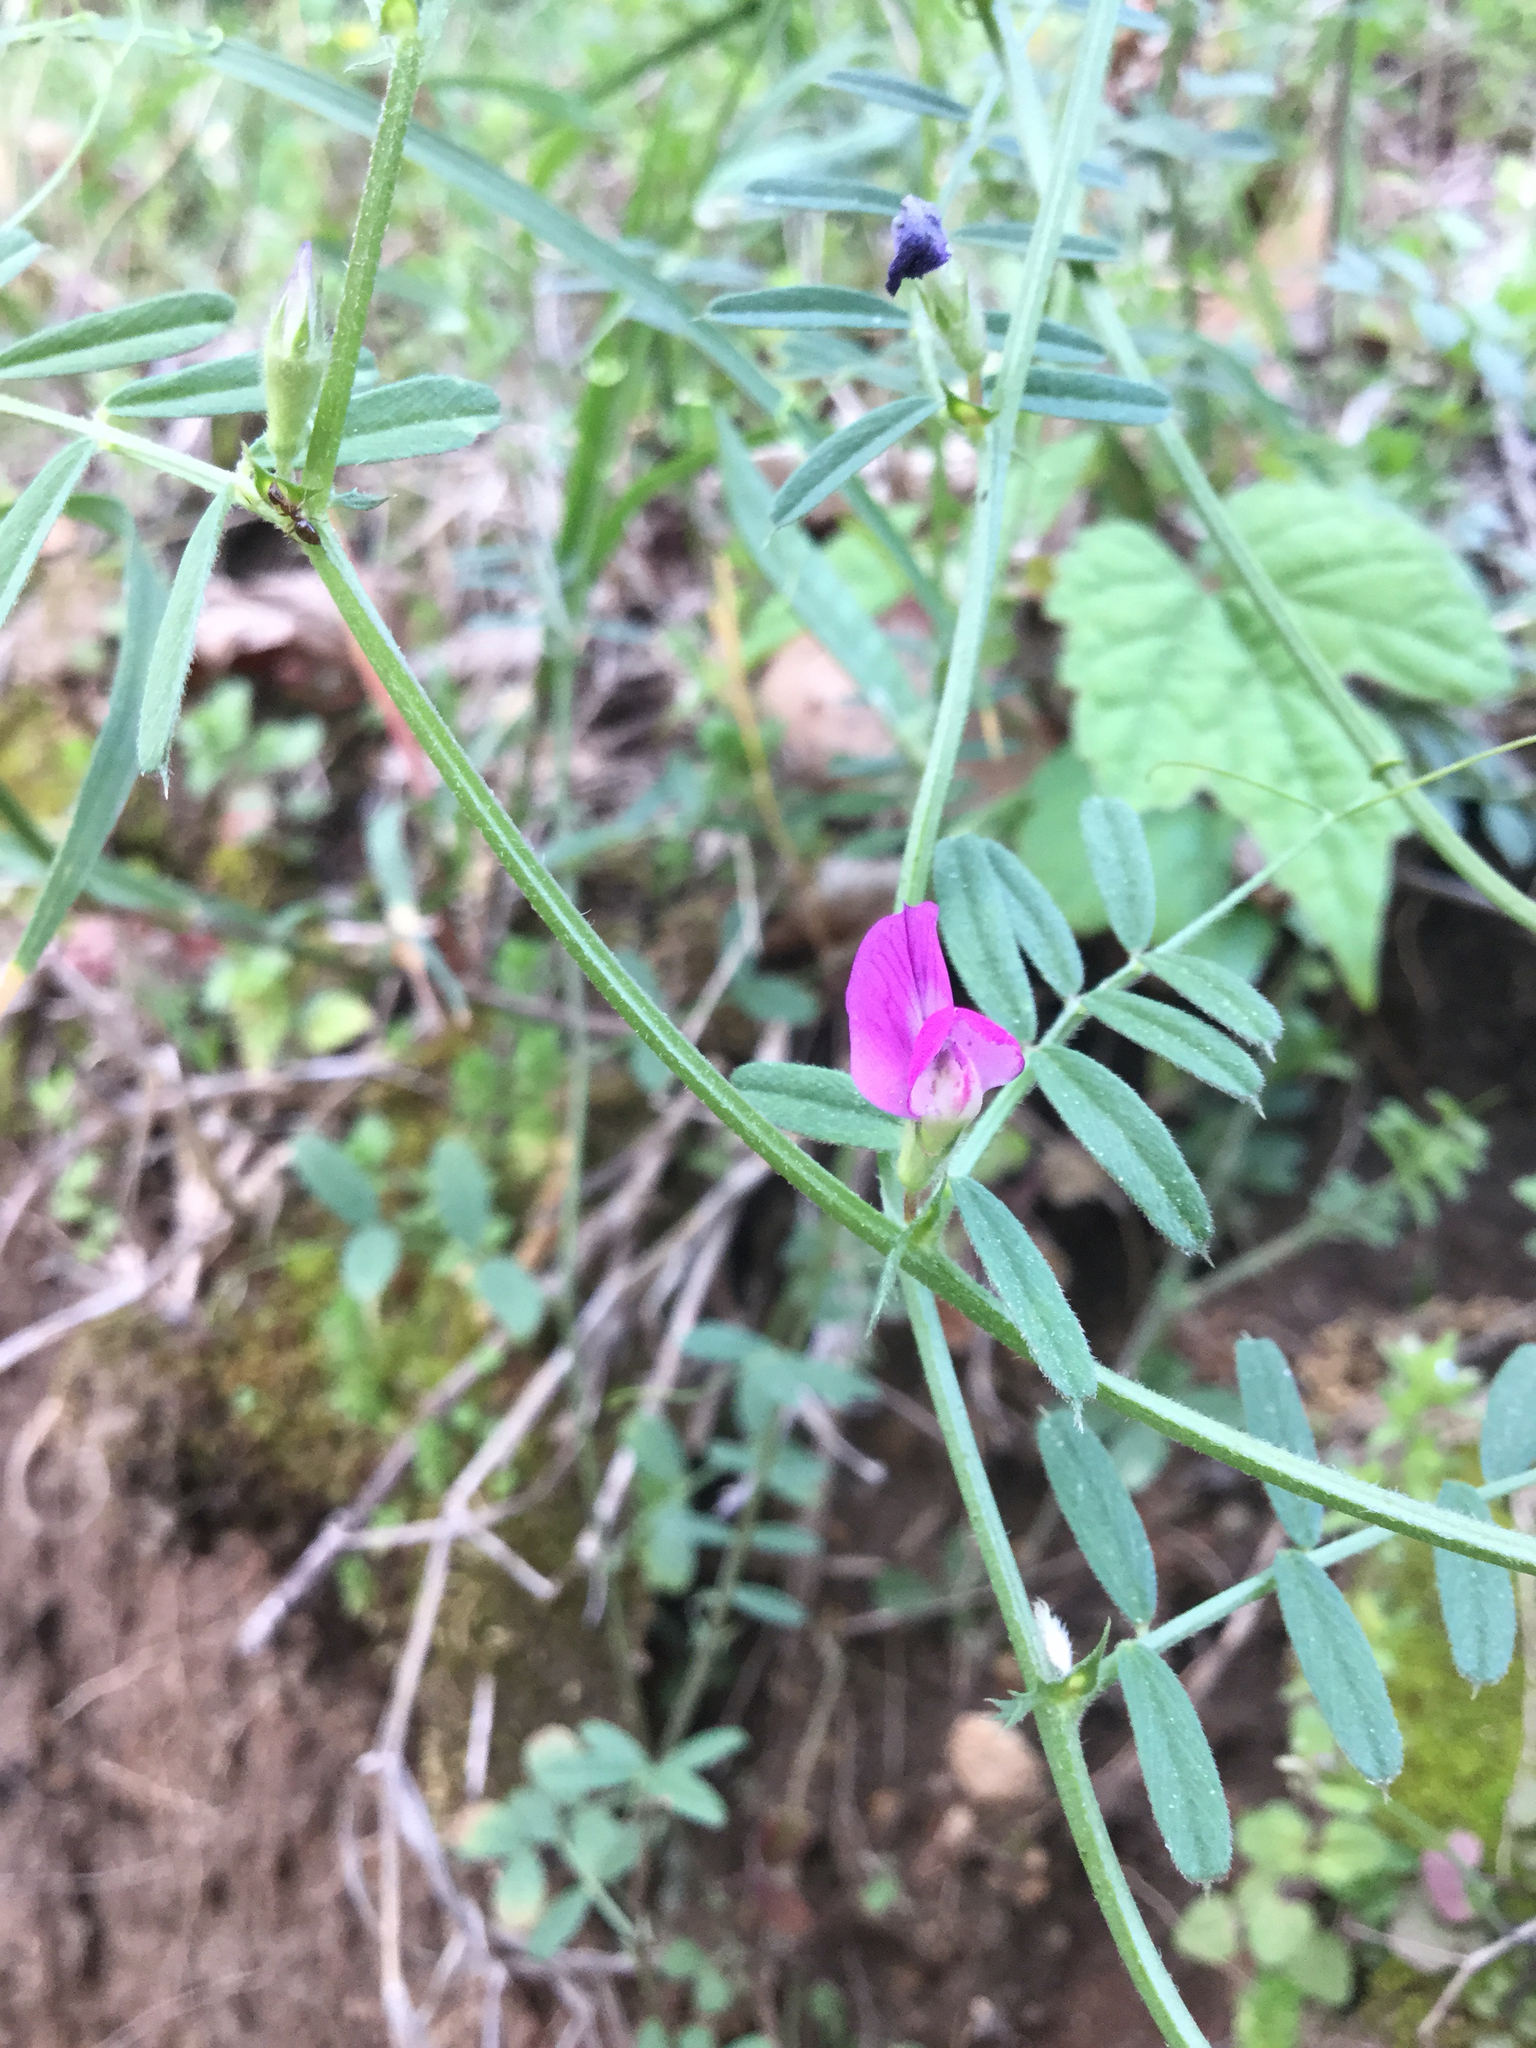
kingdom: Plantae
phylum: Tracheophyta
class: Magnoliopsida
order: Fabales
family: Fabaceae
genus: Vicia
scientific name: Vicia sativa
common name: Garden vetch
